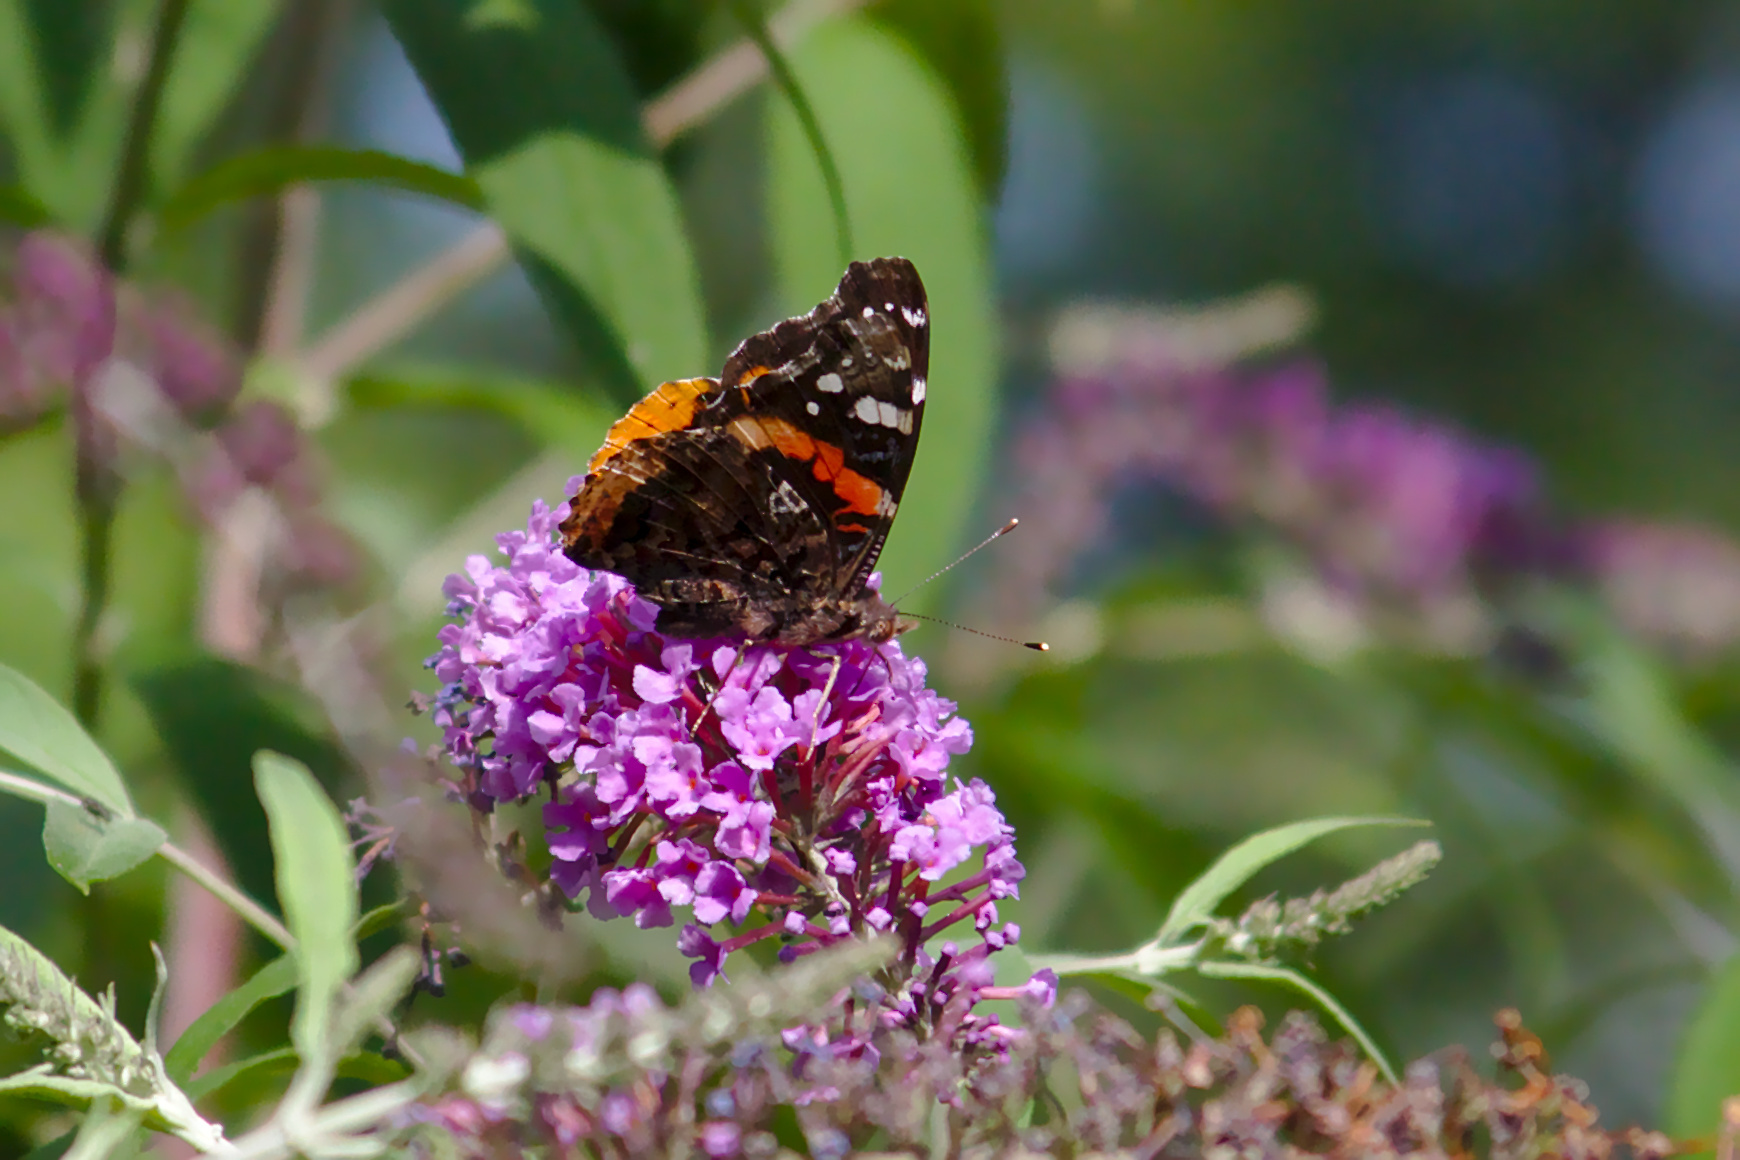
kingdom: Animalia
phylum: Arthropoda
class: Insecta
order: Lepidoptera
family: Nymphalidae
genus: Vanessa
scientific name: Vanessa atalanta
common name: Red admiral
